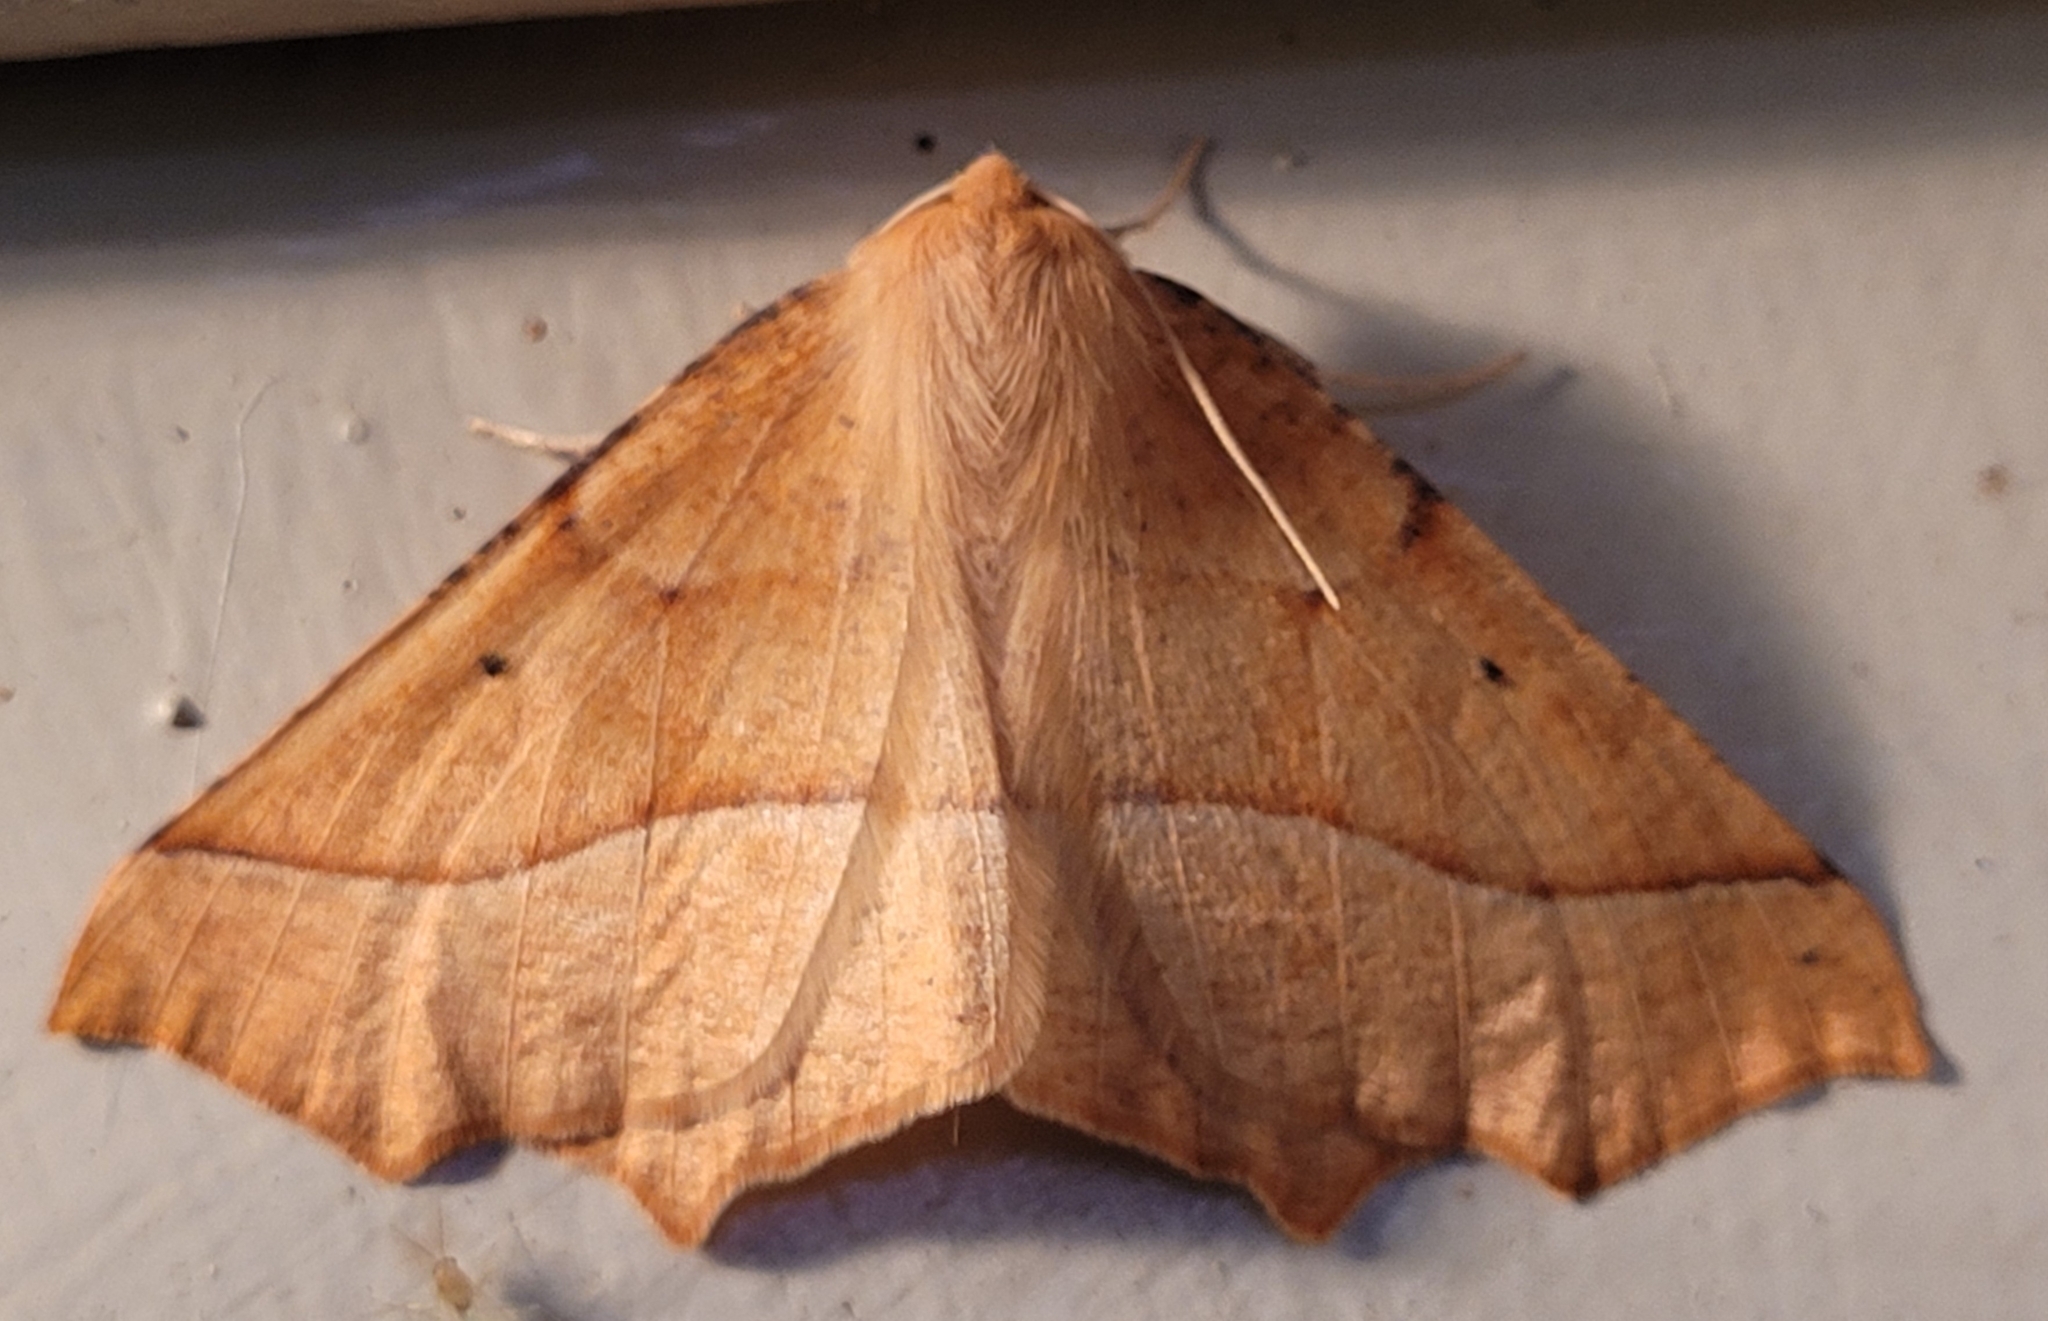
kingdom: Animalia
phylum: Arthropoda
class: Insecta
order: Lepidoptera
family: Geometridae
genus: Synaxis
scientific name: Synaxis jubararia
